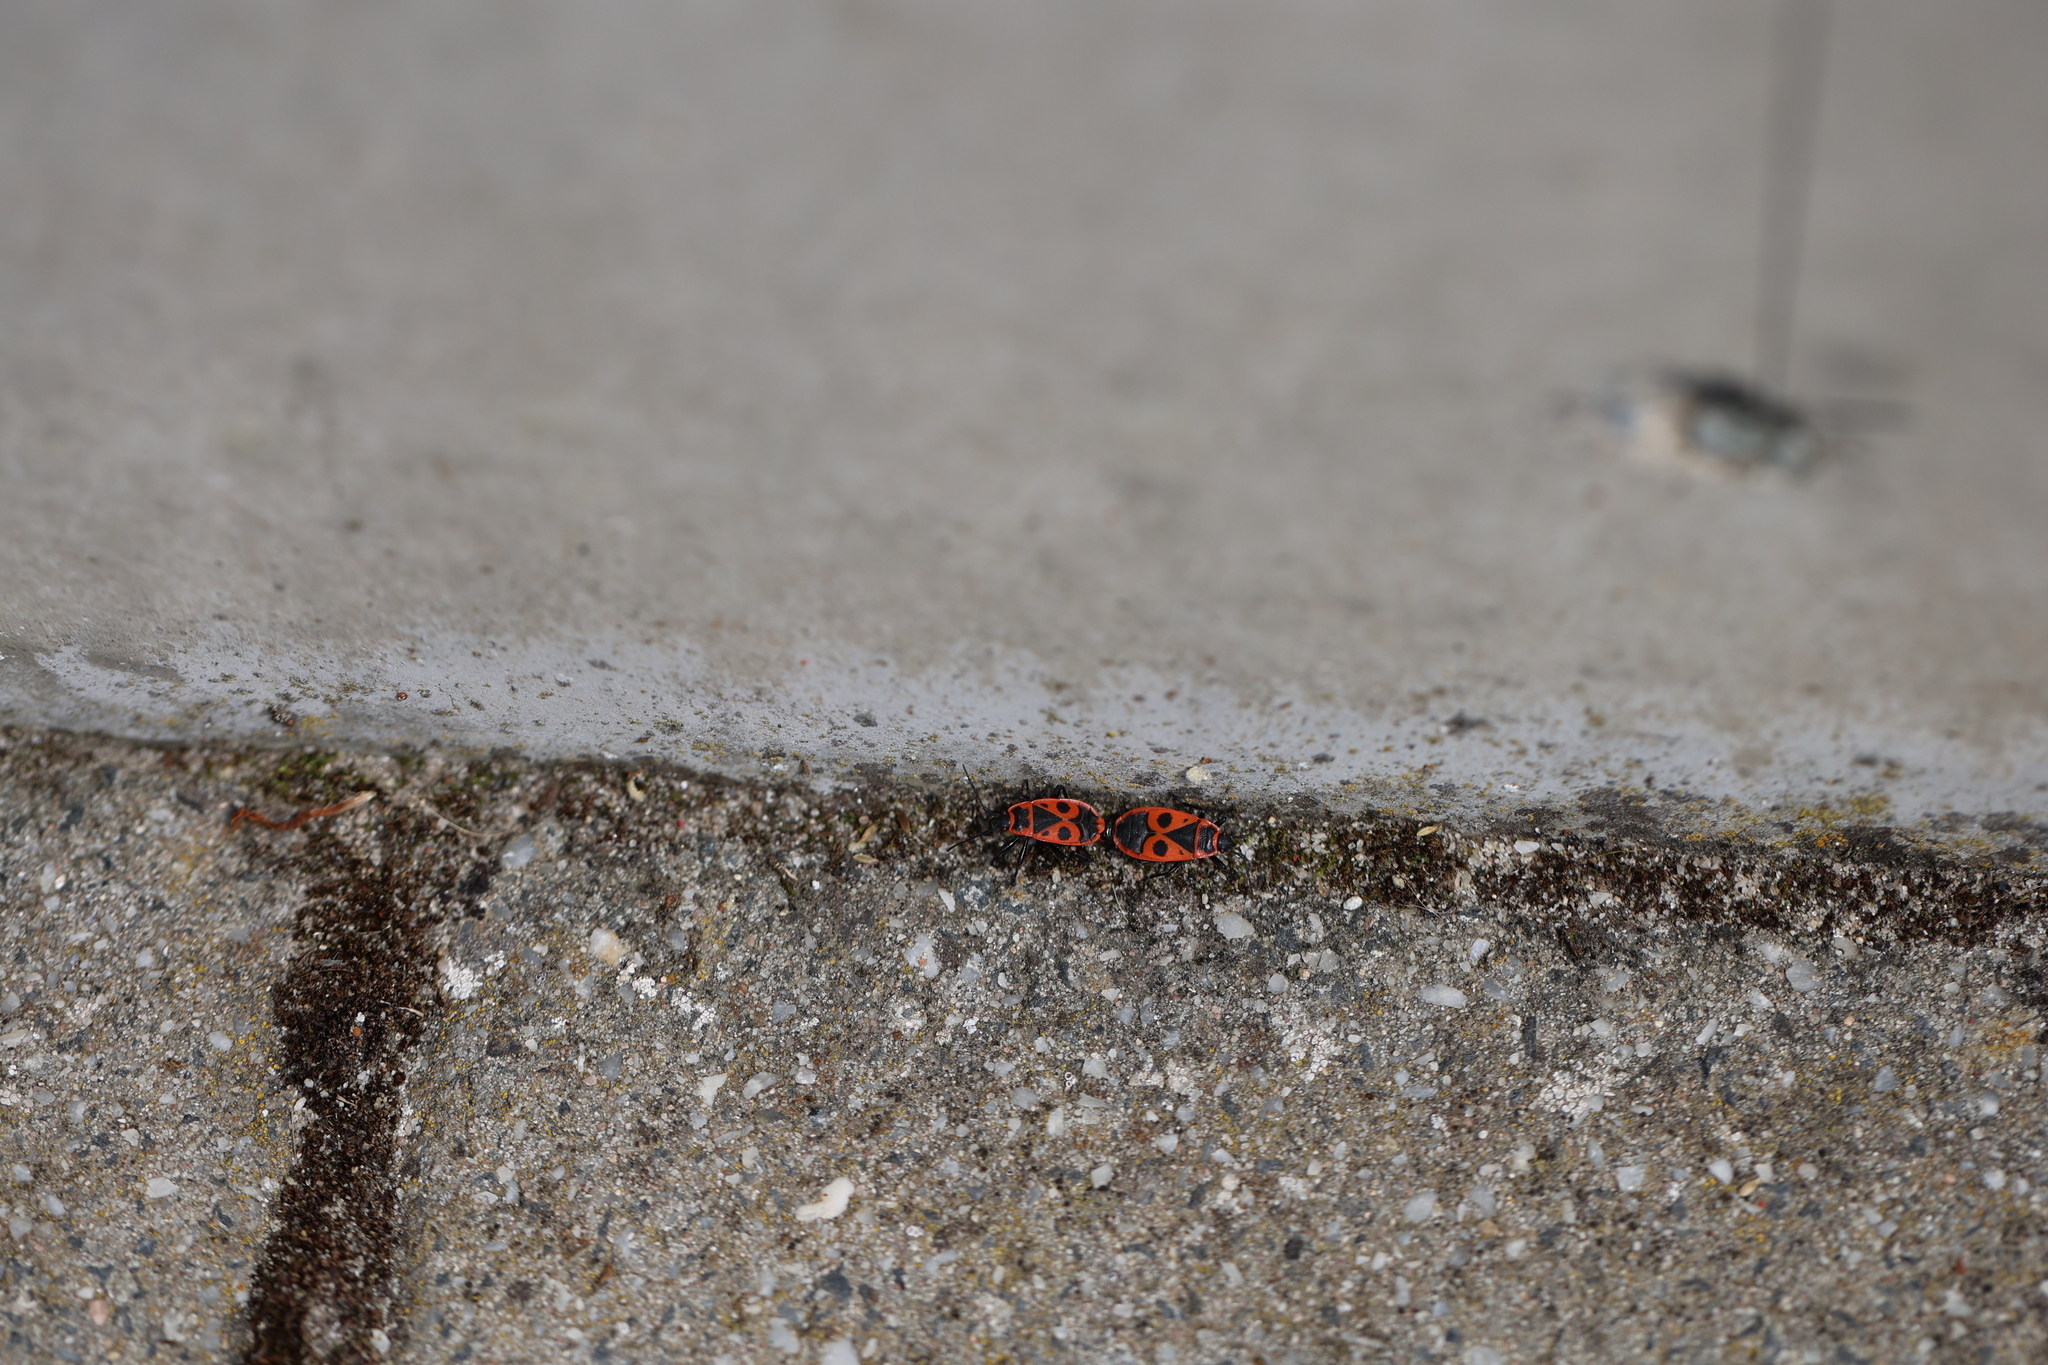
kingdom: Animalia
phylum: Arthropoda
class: Insecta
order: Hemiptera
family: Pyrrhocoridae
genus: Pyrrhocoris
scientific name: Pyrrhocoris apterus
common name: Firebug
